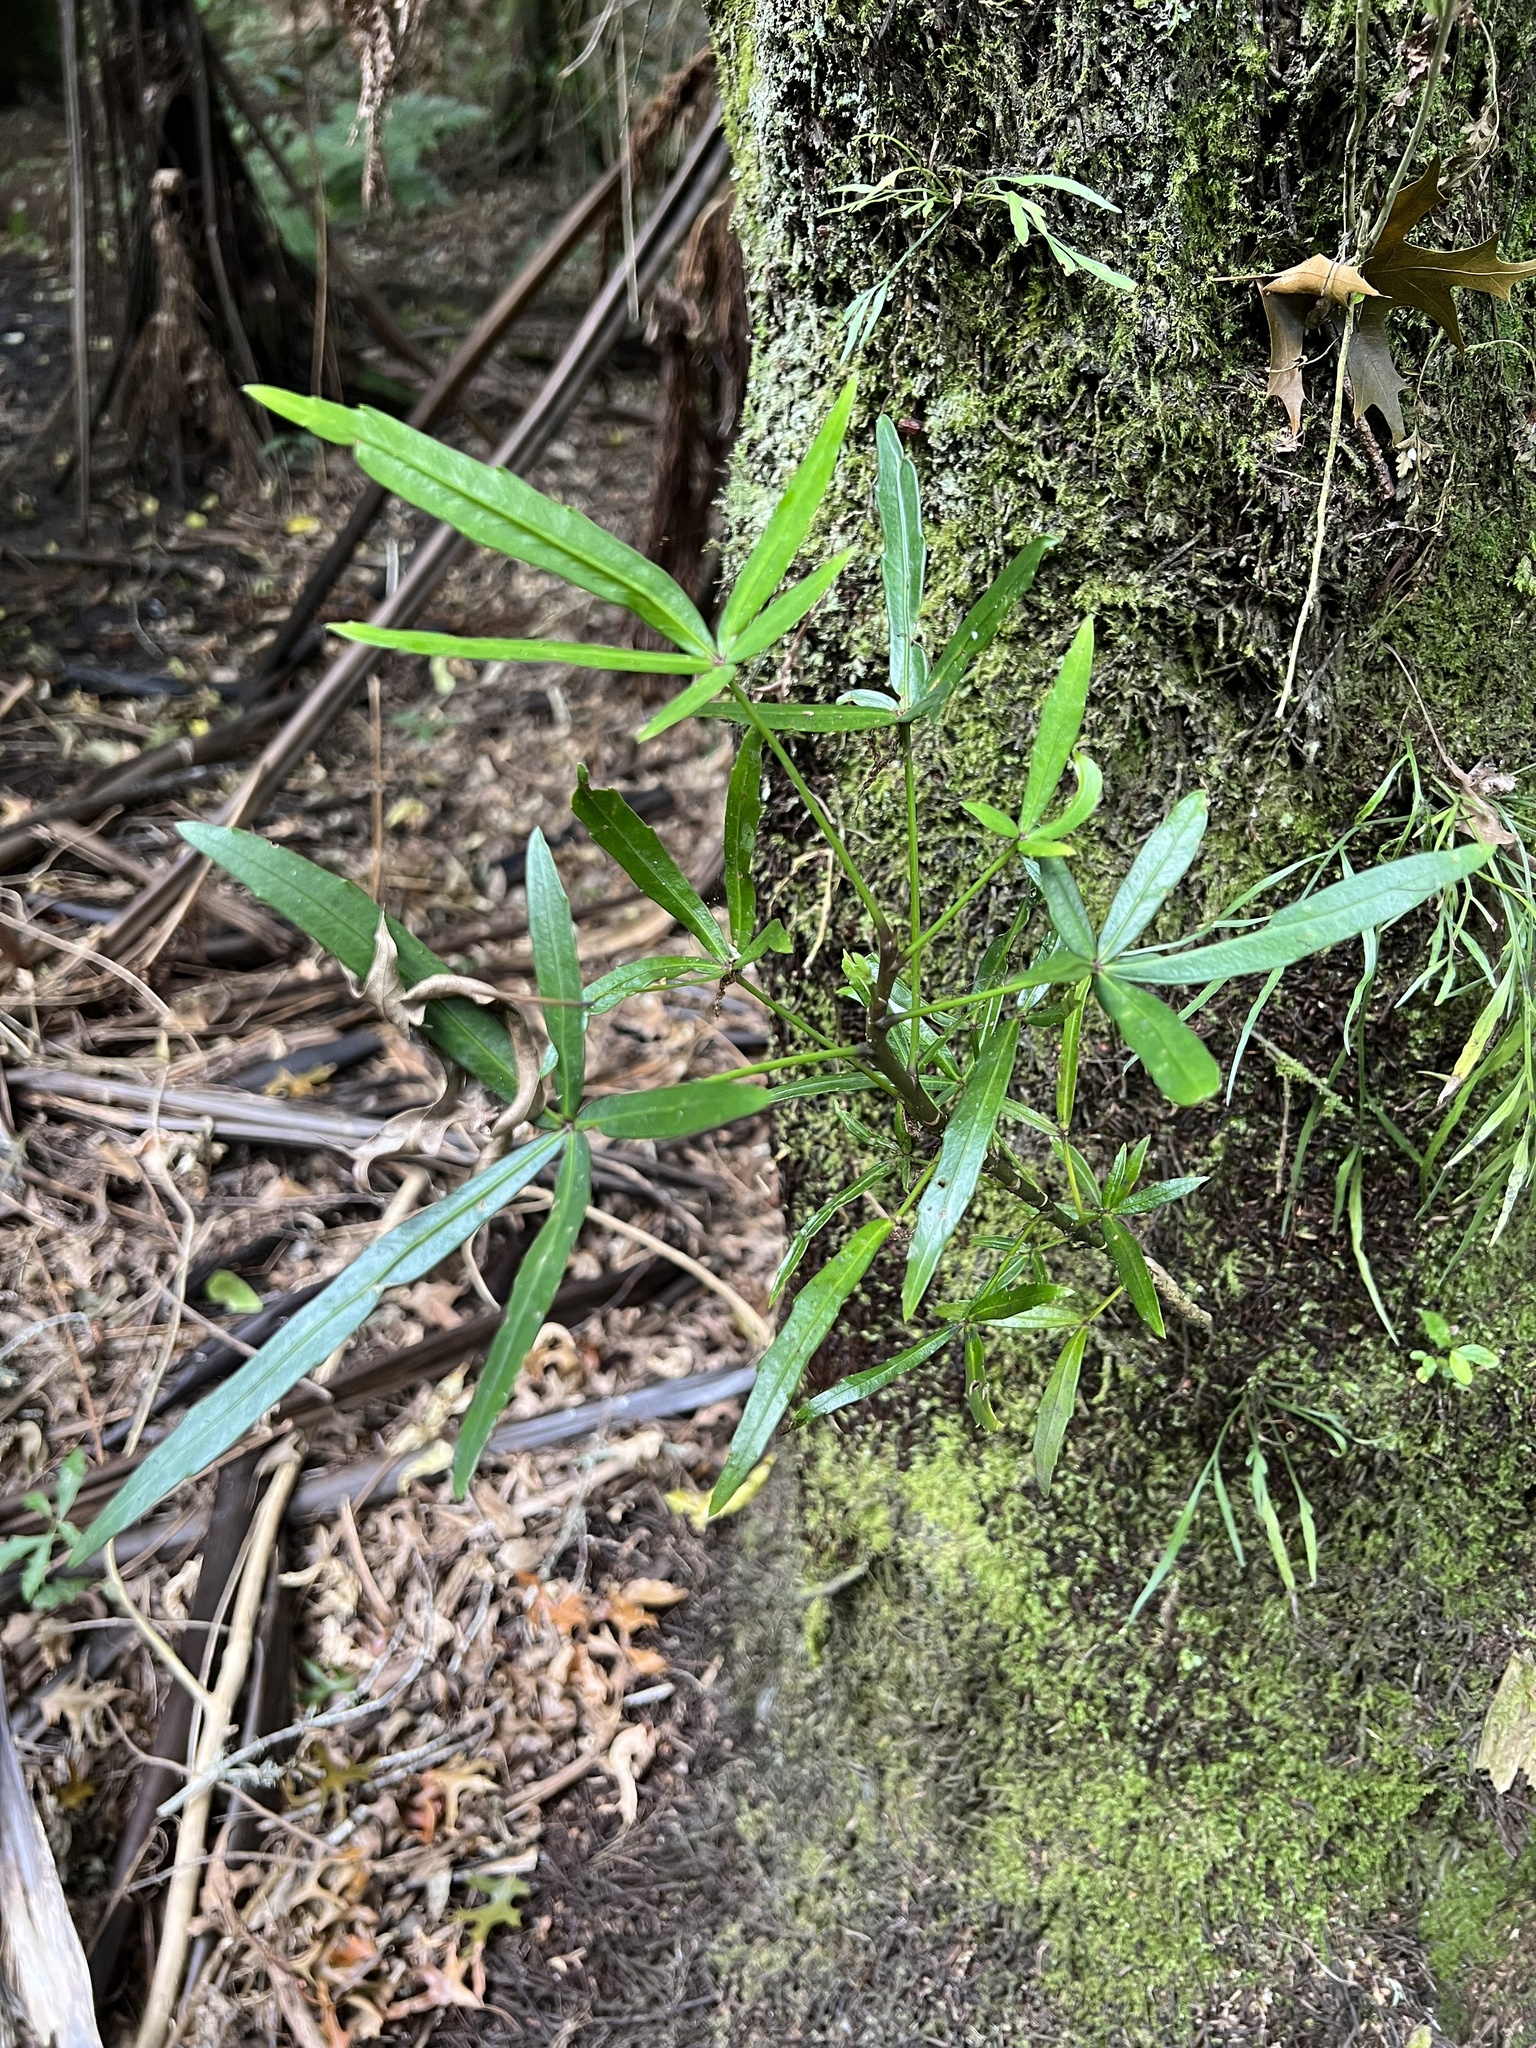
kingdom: Plantae
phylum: Tracheophyta
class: Magnoliopsida
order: Apiales
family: Araliaceae
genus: Pseudopanax
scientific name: Pseudopanax
